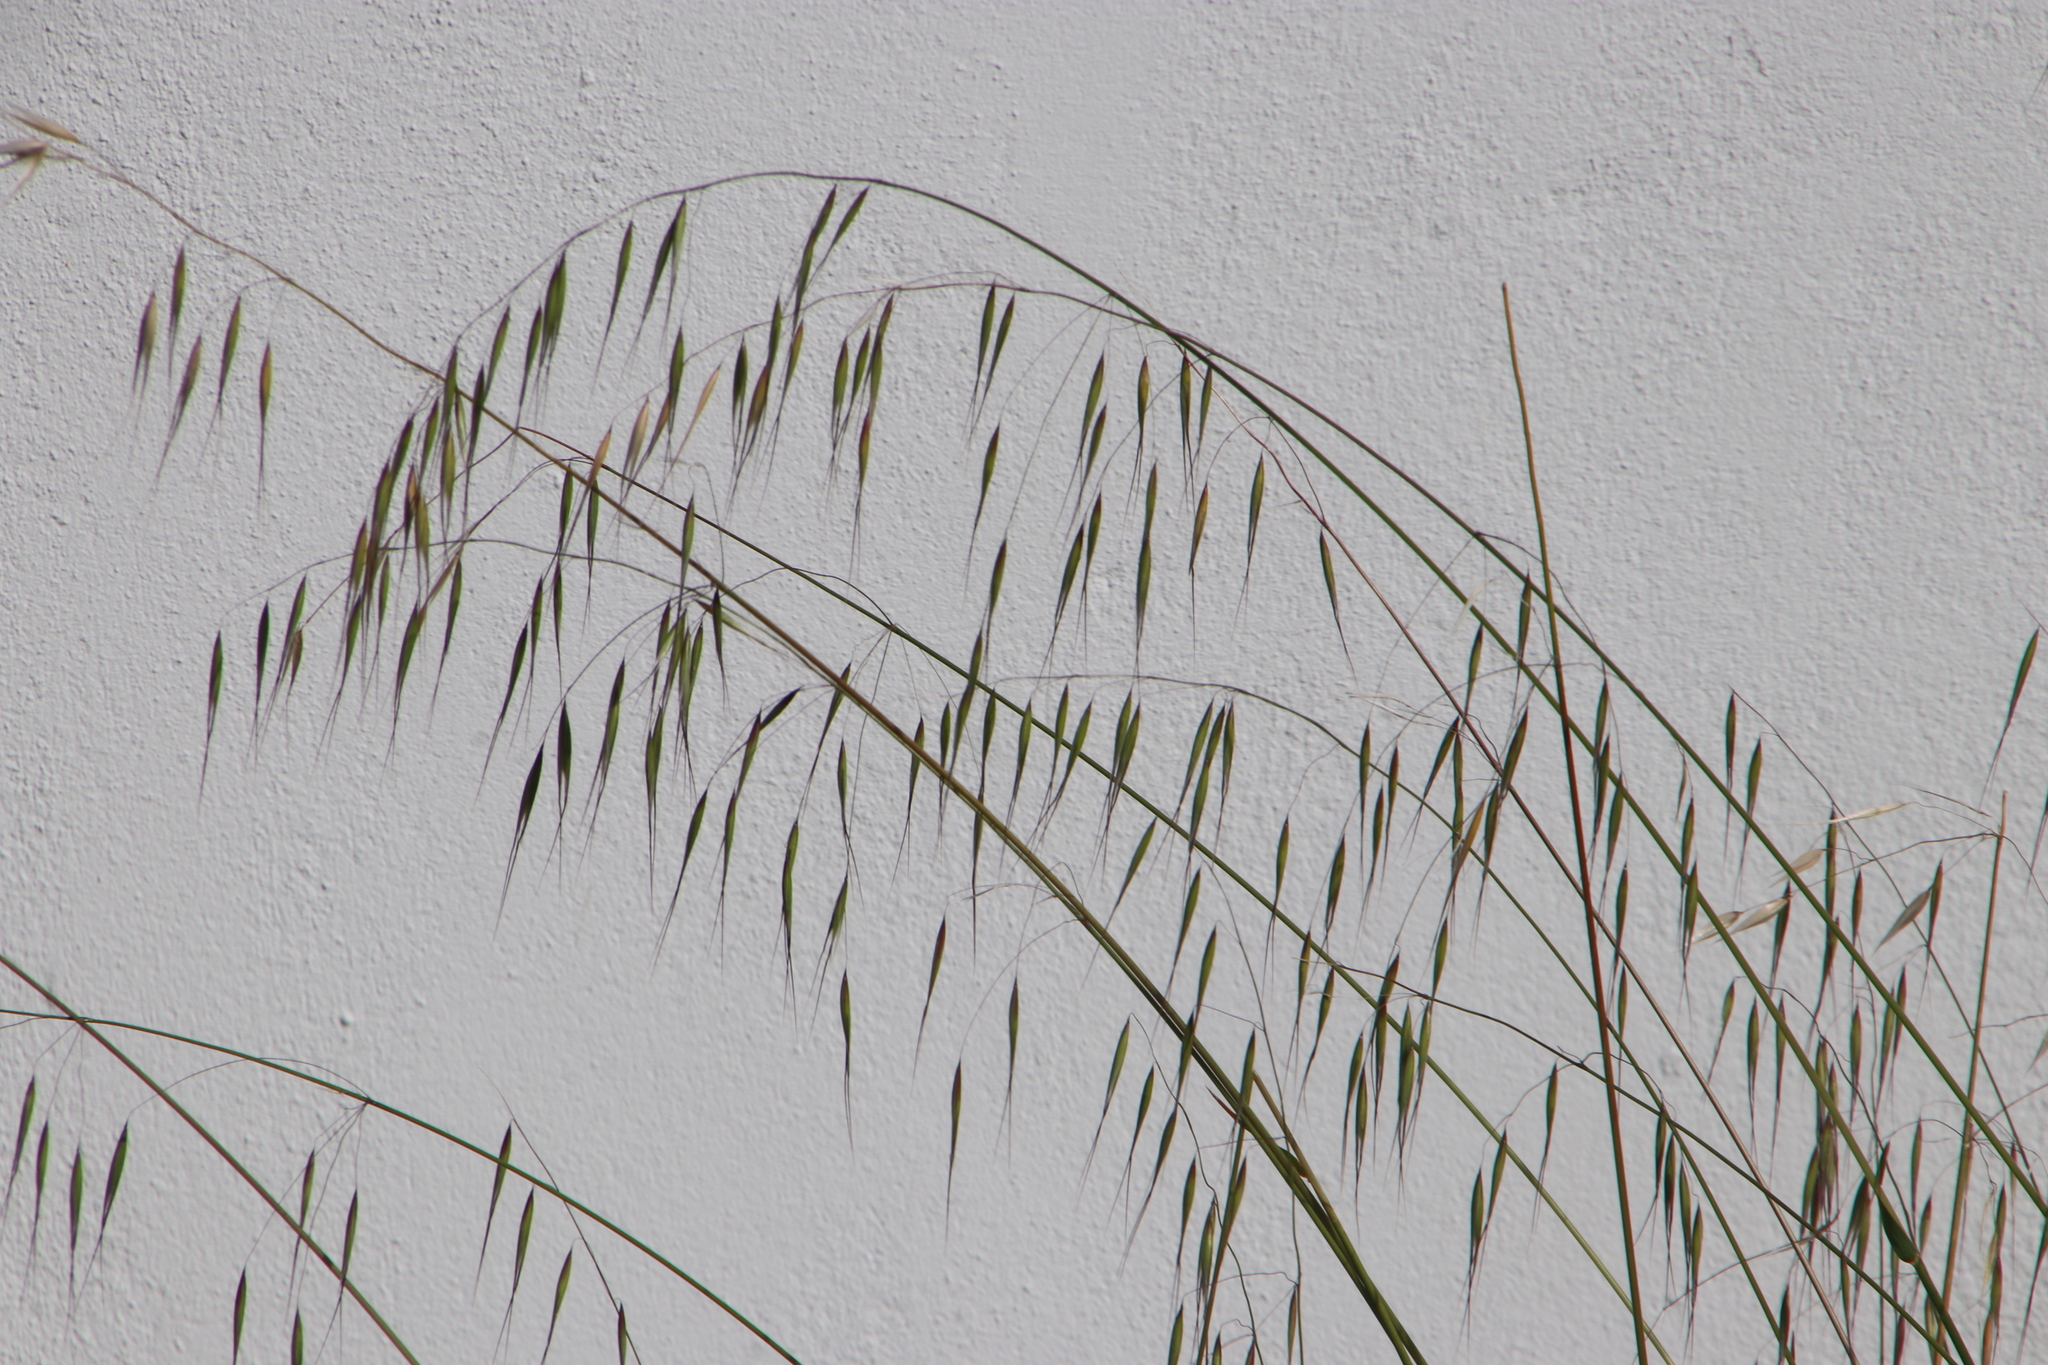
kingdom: Plantae
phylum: Tracheophyta
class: Liliopsida
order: Poales
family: Poaceae
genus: Avena
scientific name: Avena fatua
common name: Wild oat
